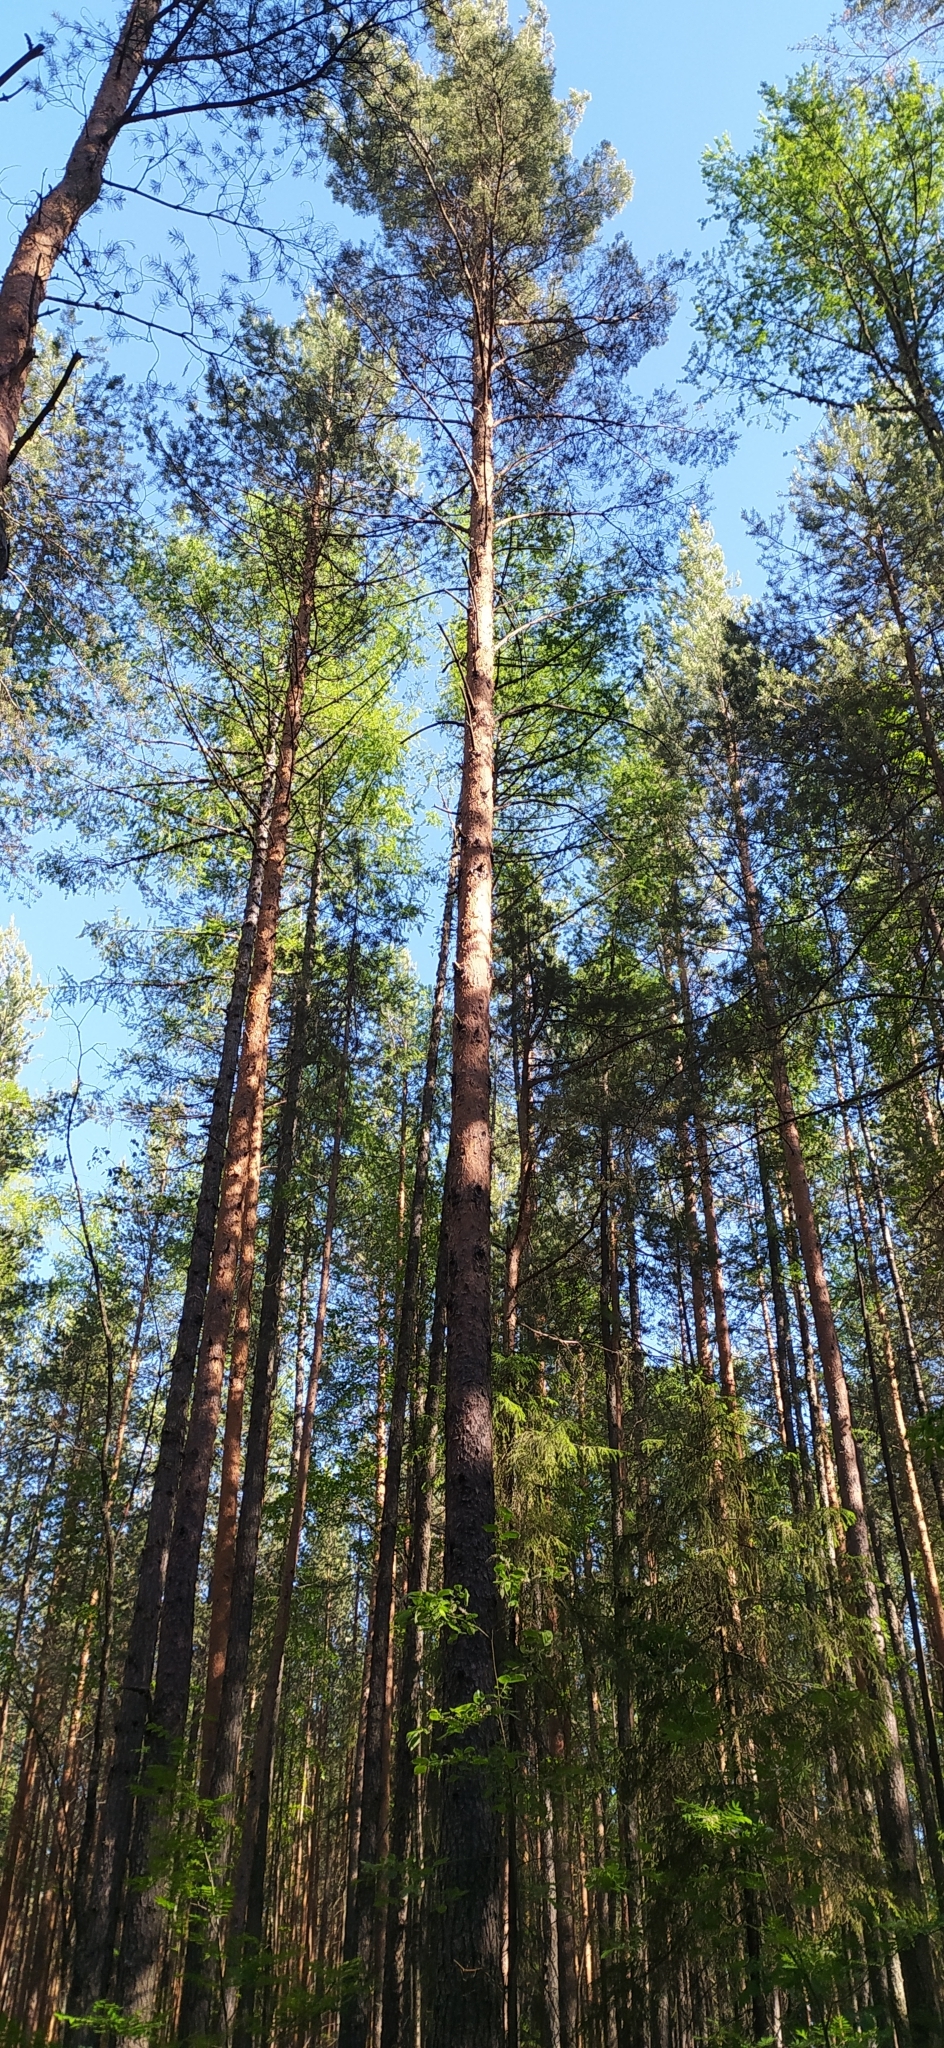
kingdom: Plantae
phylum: Tracheophyta
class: Pinopsida
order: Pinales
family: Pinaceae
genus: Pinus
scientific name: Pinus sylvestris
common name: Scots pine
